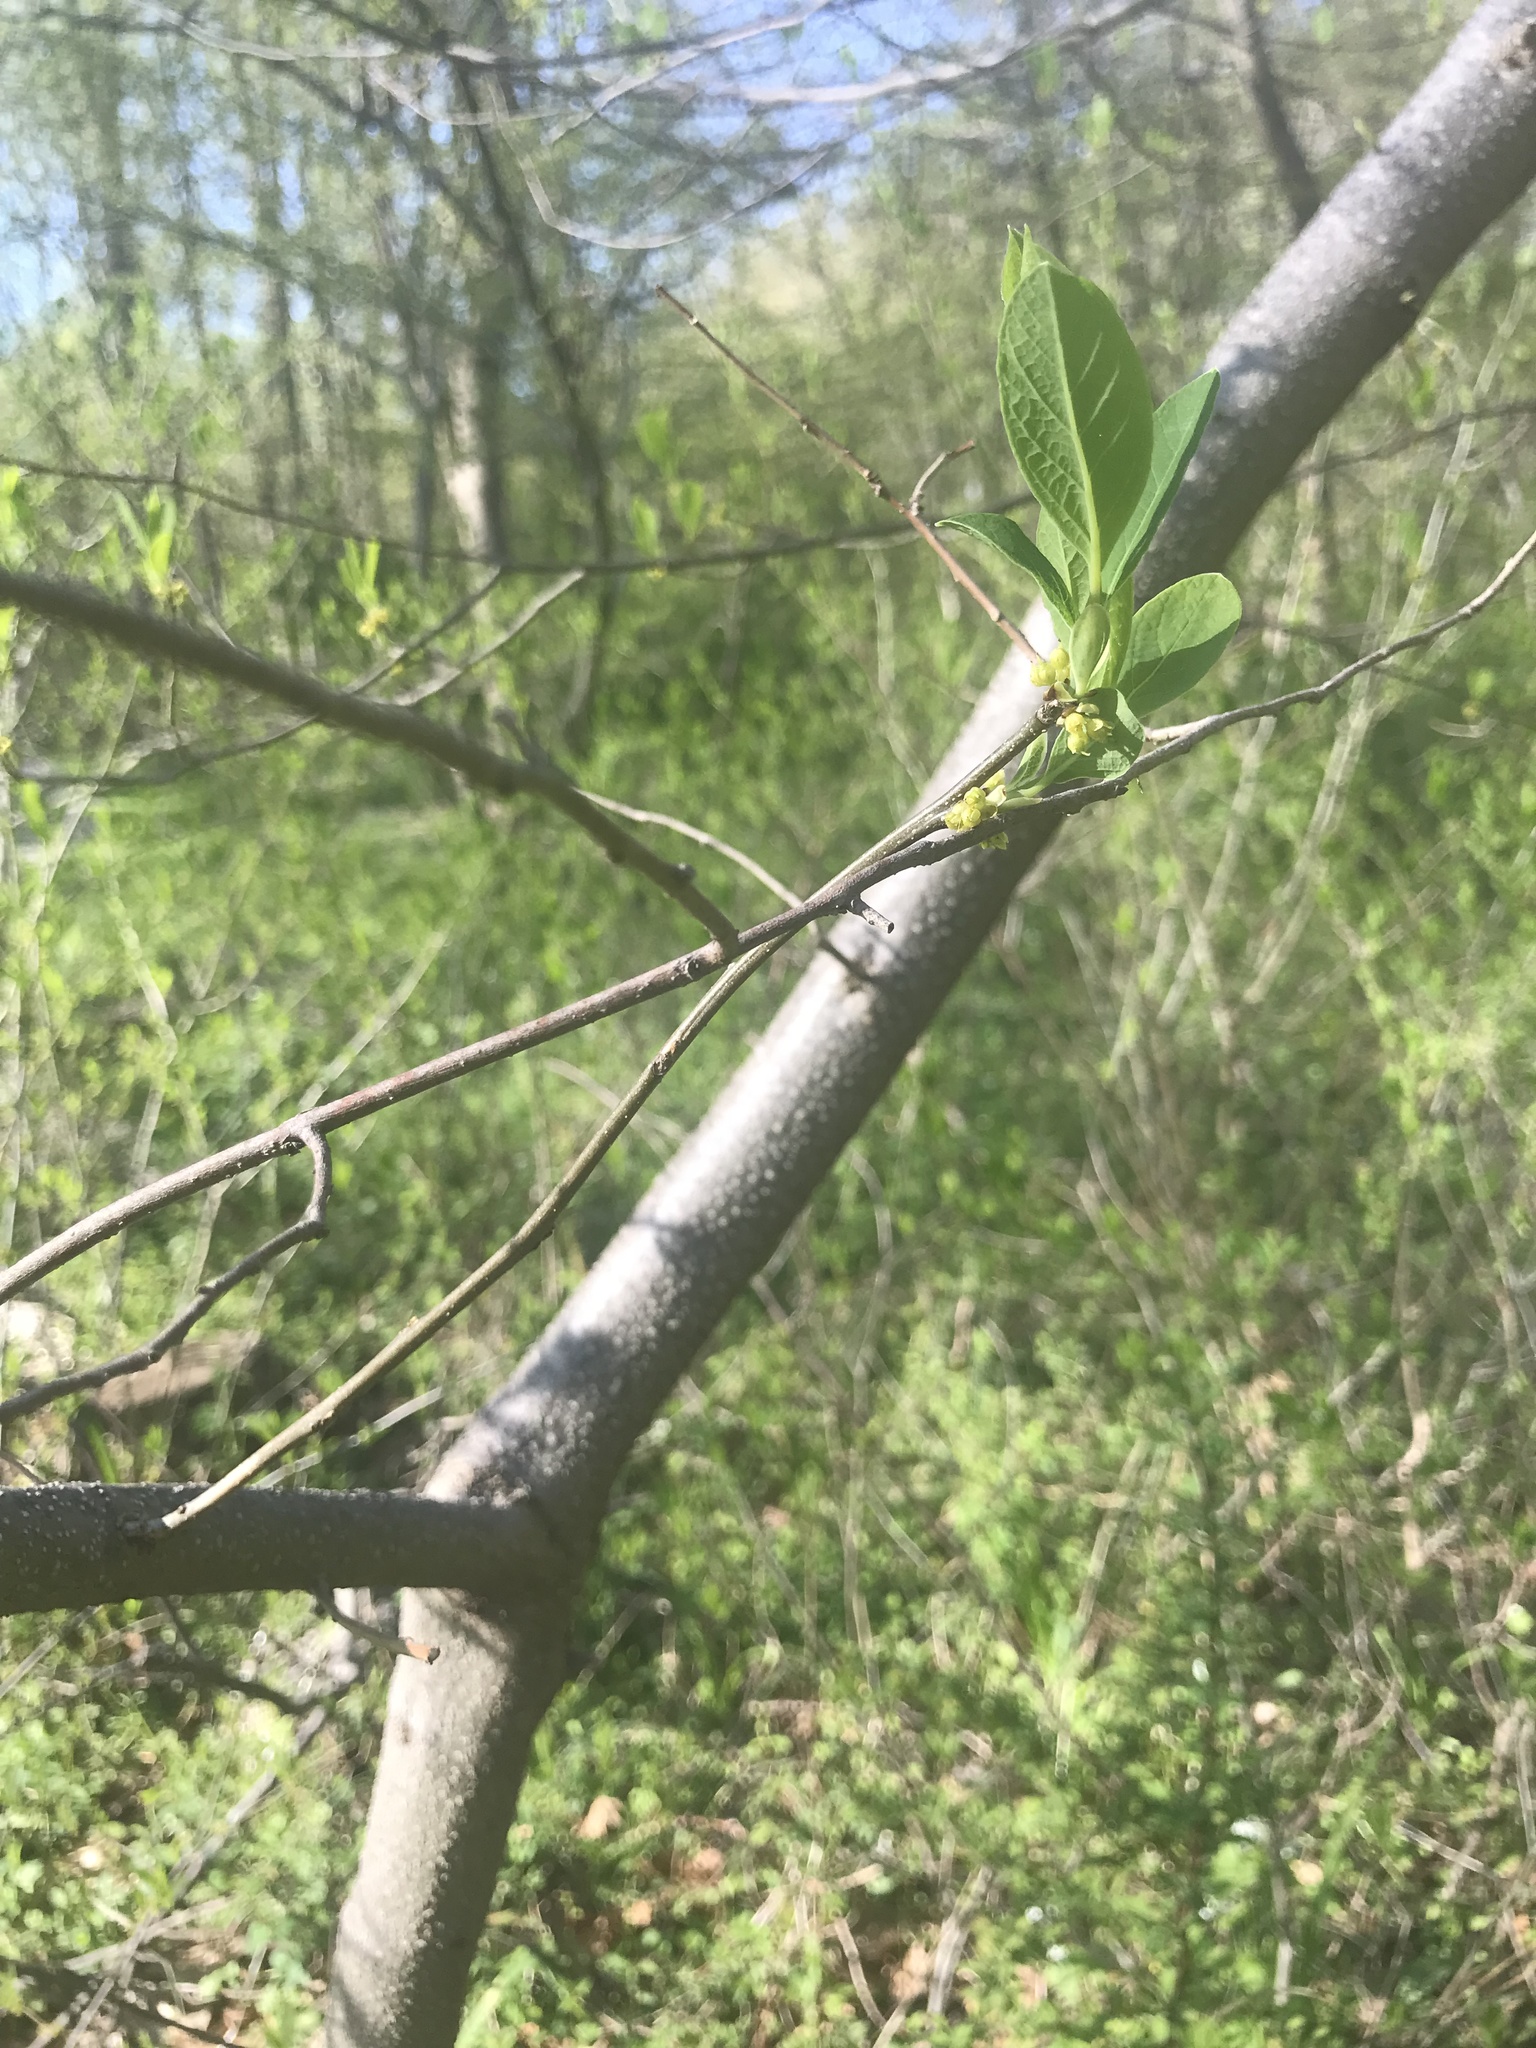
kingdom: Plantae
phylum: Tracheophyta
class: Magnoliopsida
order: Laurales
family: Lauraceae
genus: Lindera
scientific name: Lindera benzoin
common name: Spicebush
